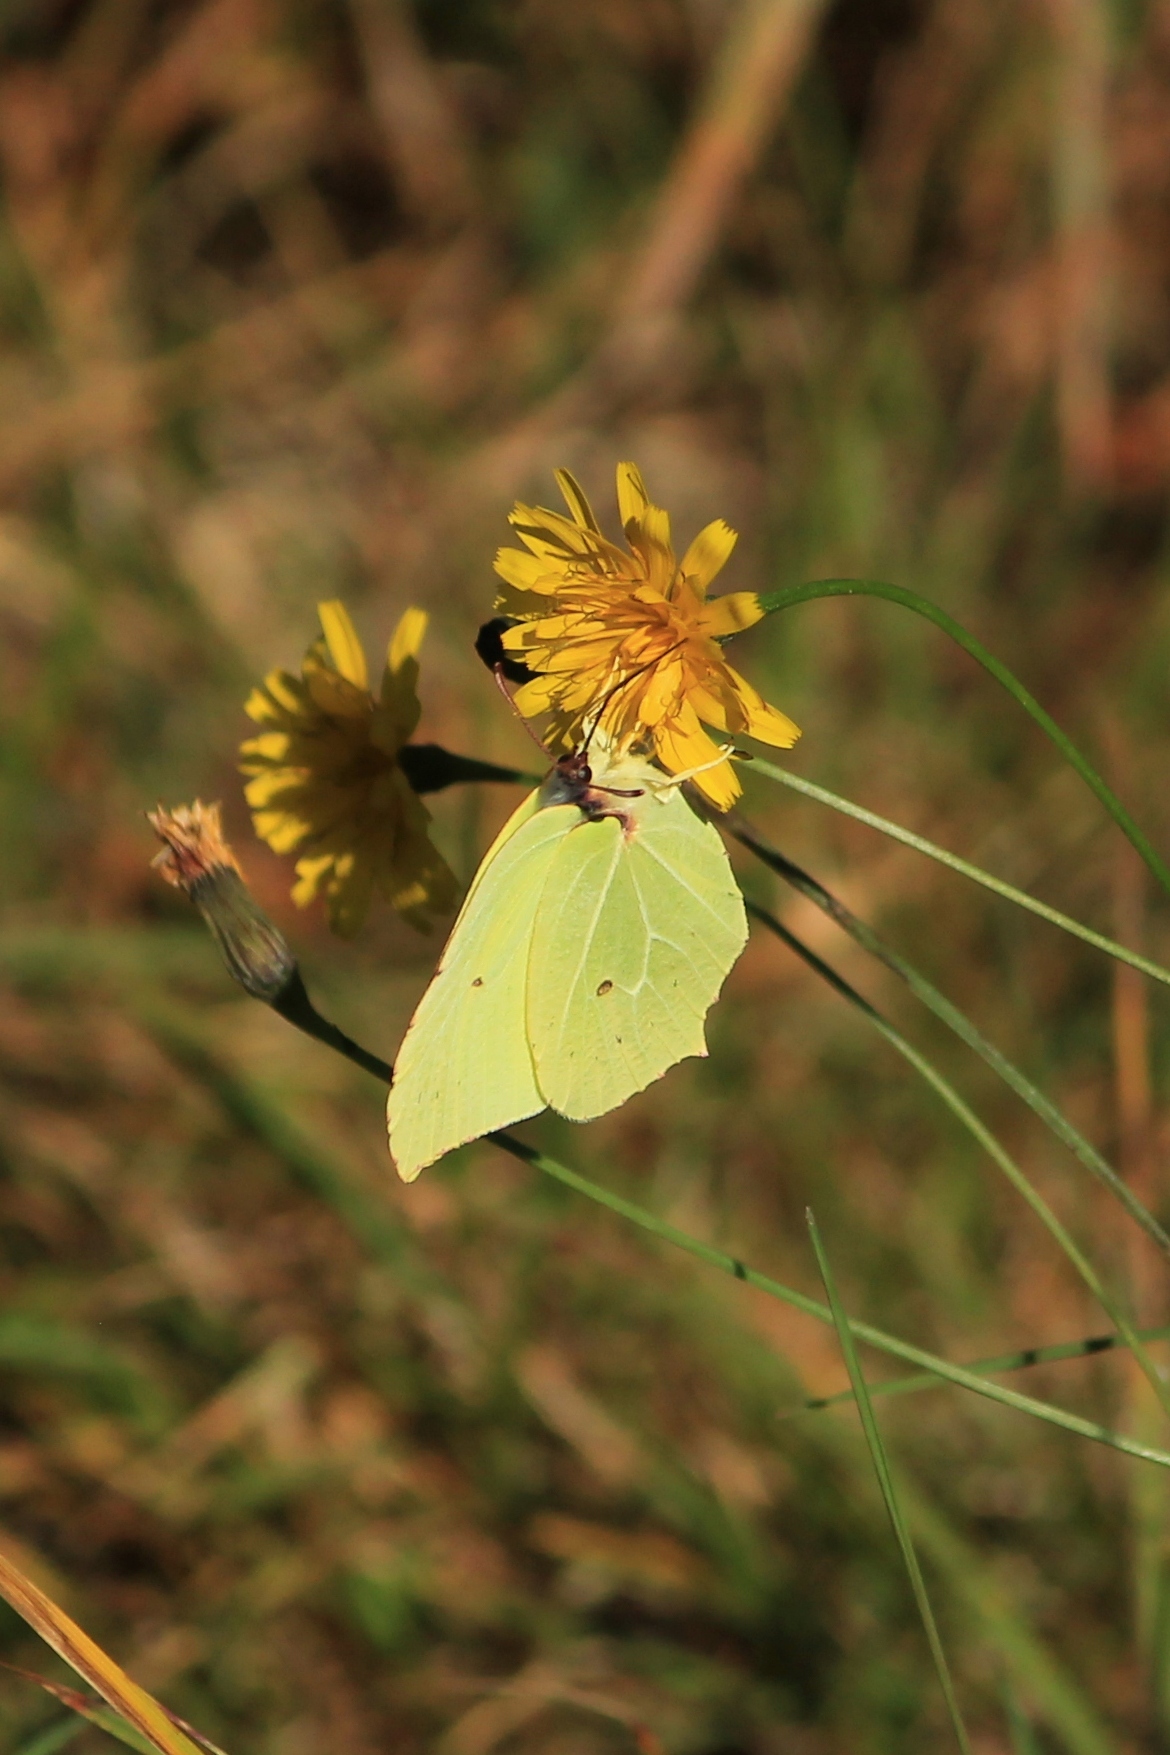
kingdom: Animalia
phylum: Arthropoda
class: Insecta
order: Lepidoptera
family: Pieridae
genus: Gonepteryx
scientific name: Gonepteryx rhamni
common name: Brimstone
